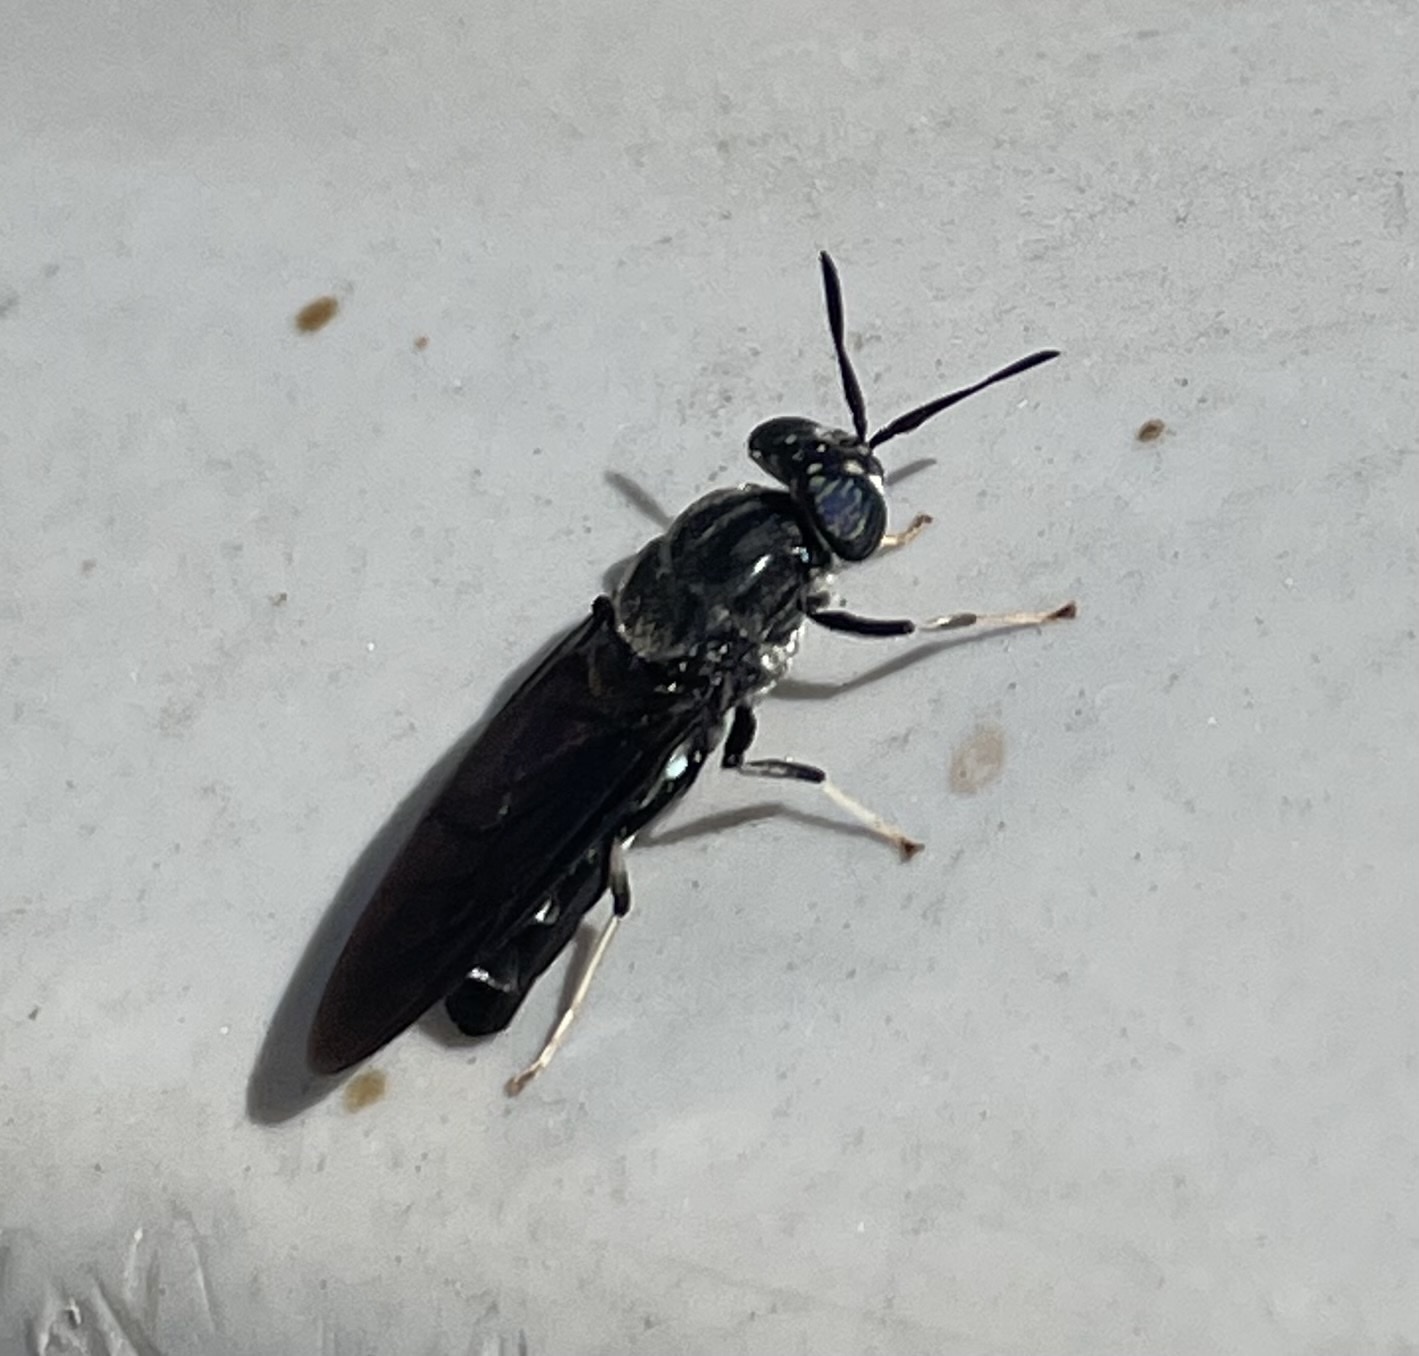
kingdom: Animalia
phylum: Arthropoda
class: Insecta
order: Diptera
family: Stratiomyidae
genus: Hermetia
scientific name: Hermetia illucens
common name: Black soldier fly
